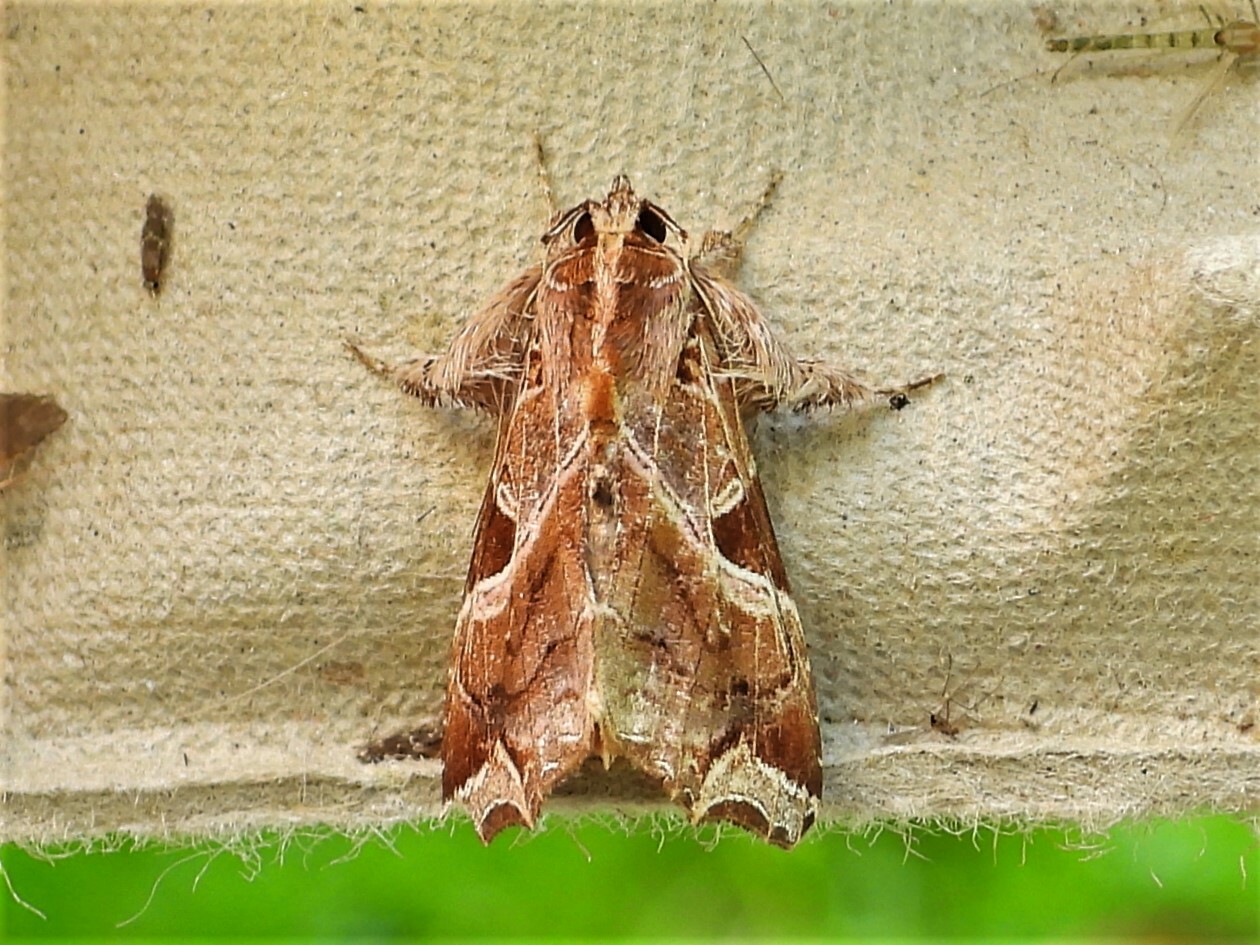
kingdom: Animalia
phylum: Arthropoda
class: Insecta
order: Lepidoptera
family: Noctuidae
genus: Callopistria
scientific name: Callopistria floridensis
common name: Florida fern moth
